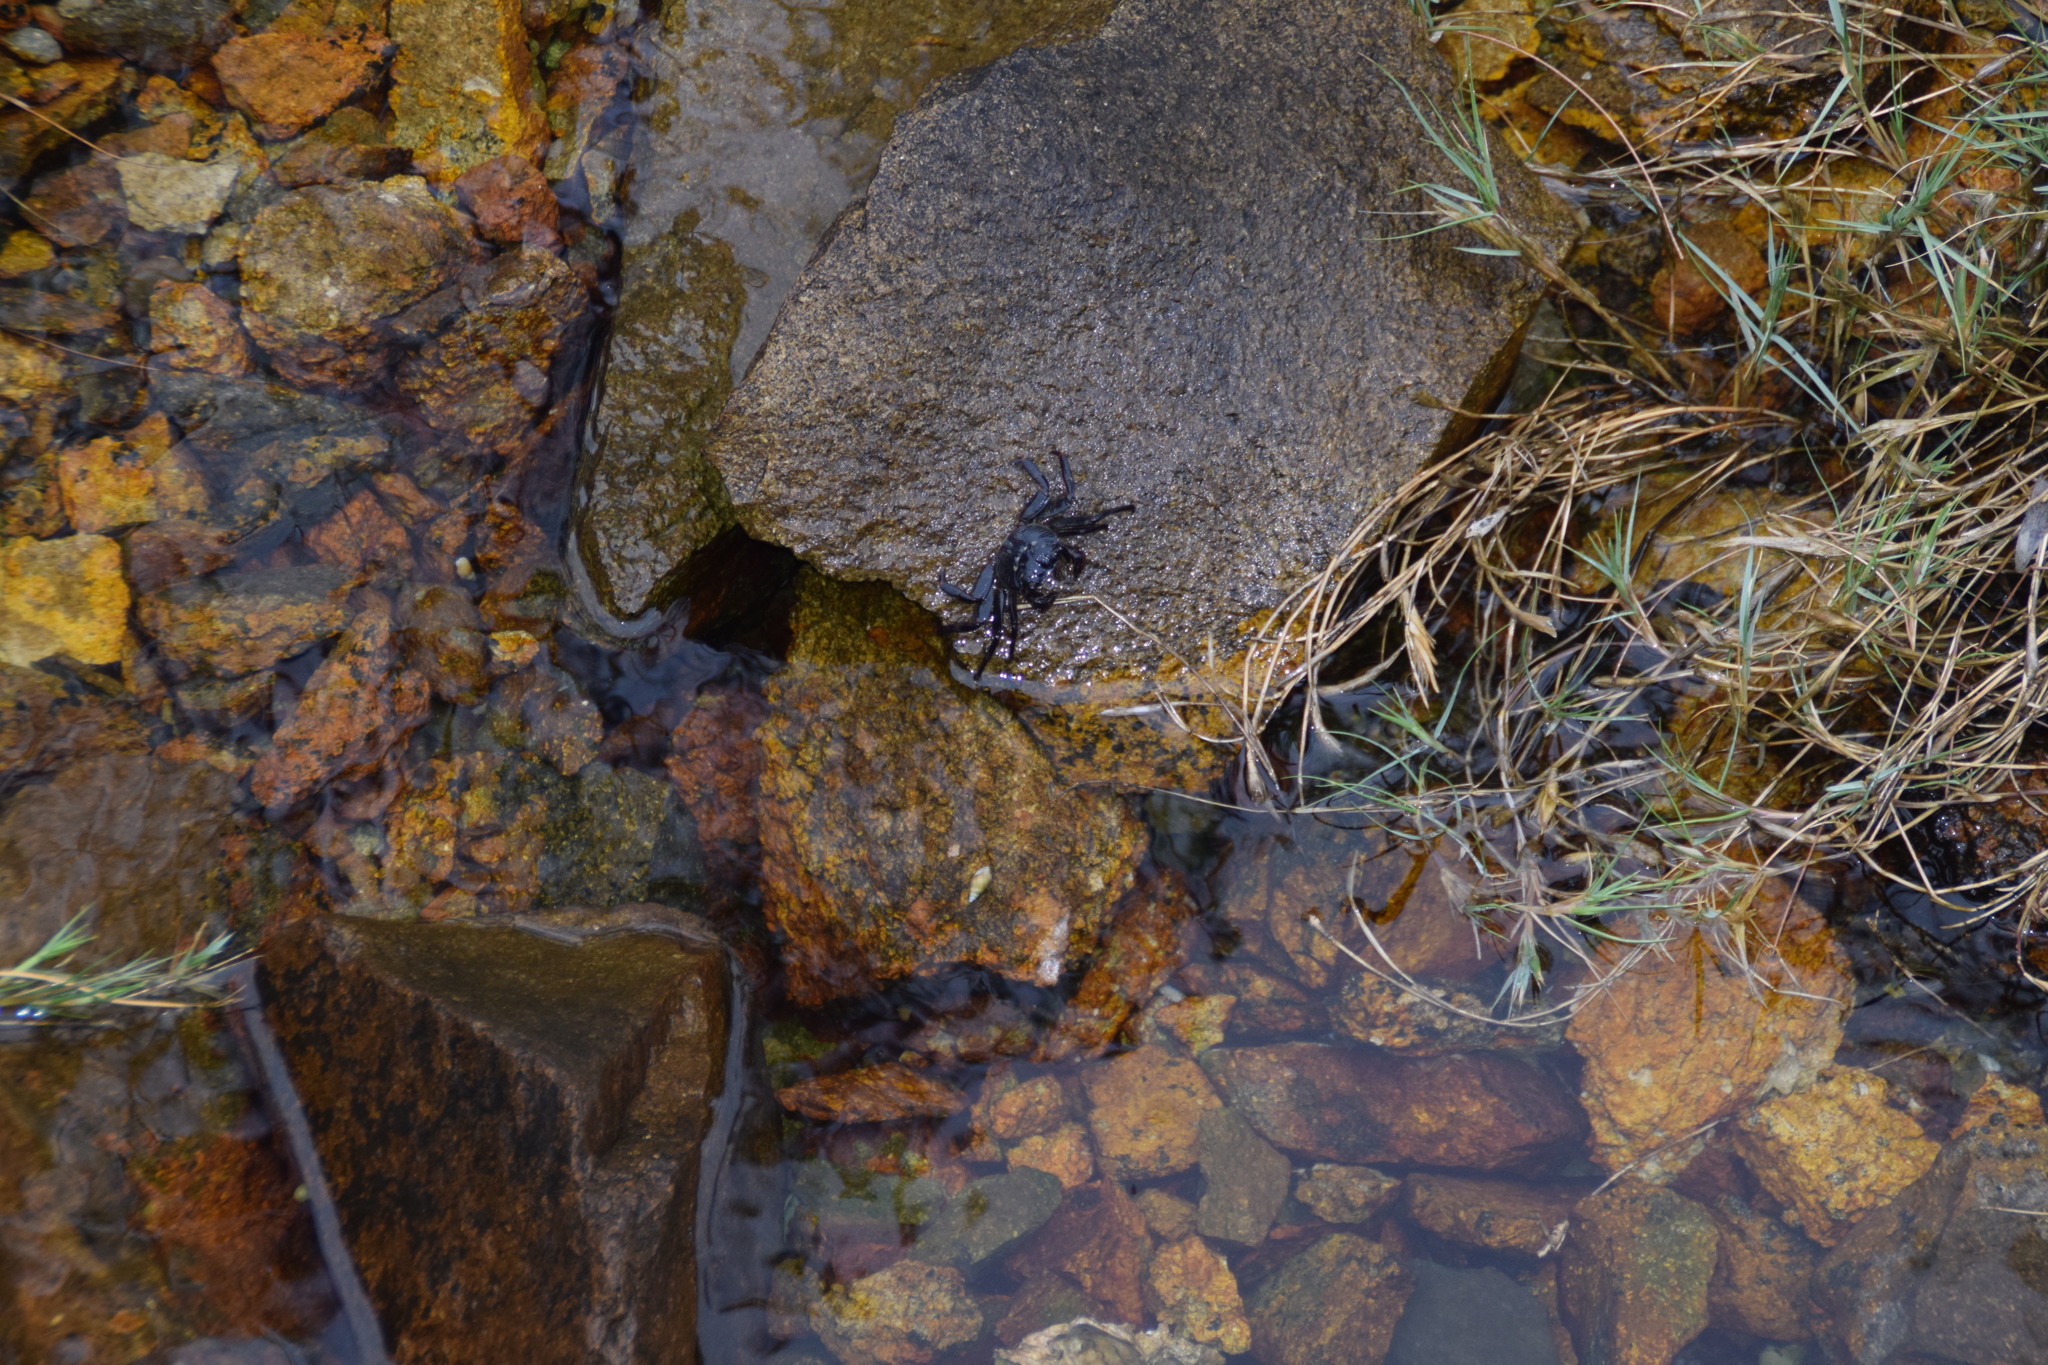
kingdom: Animalia
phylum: Arthropoda
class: Malacostraca
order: Decapoda
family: Grapsidae
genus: Leptograpsus
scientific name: Leptograpsus variegatus
